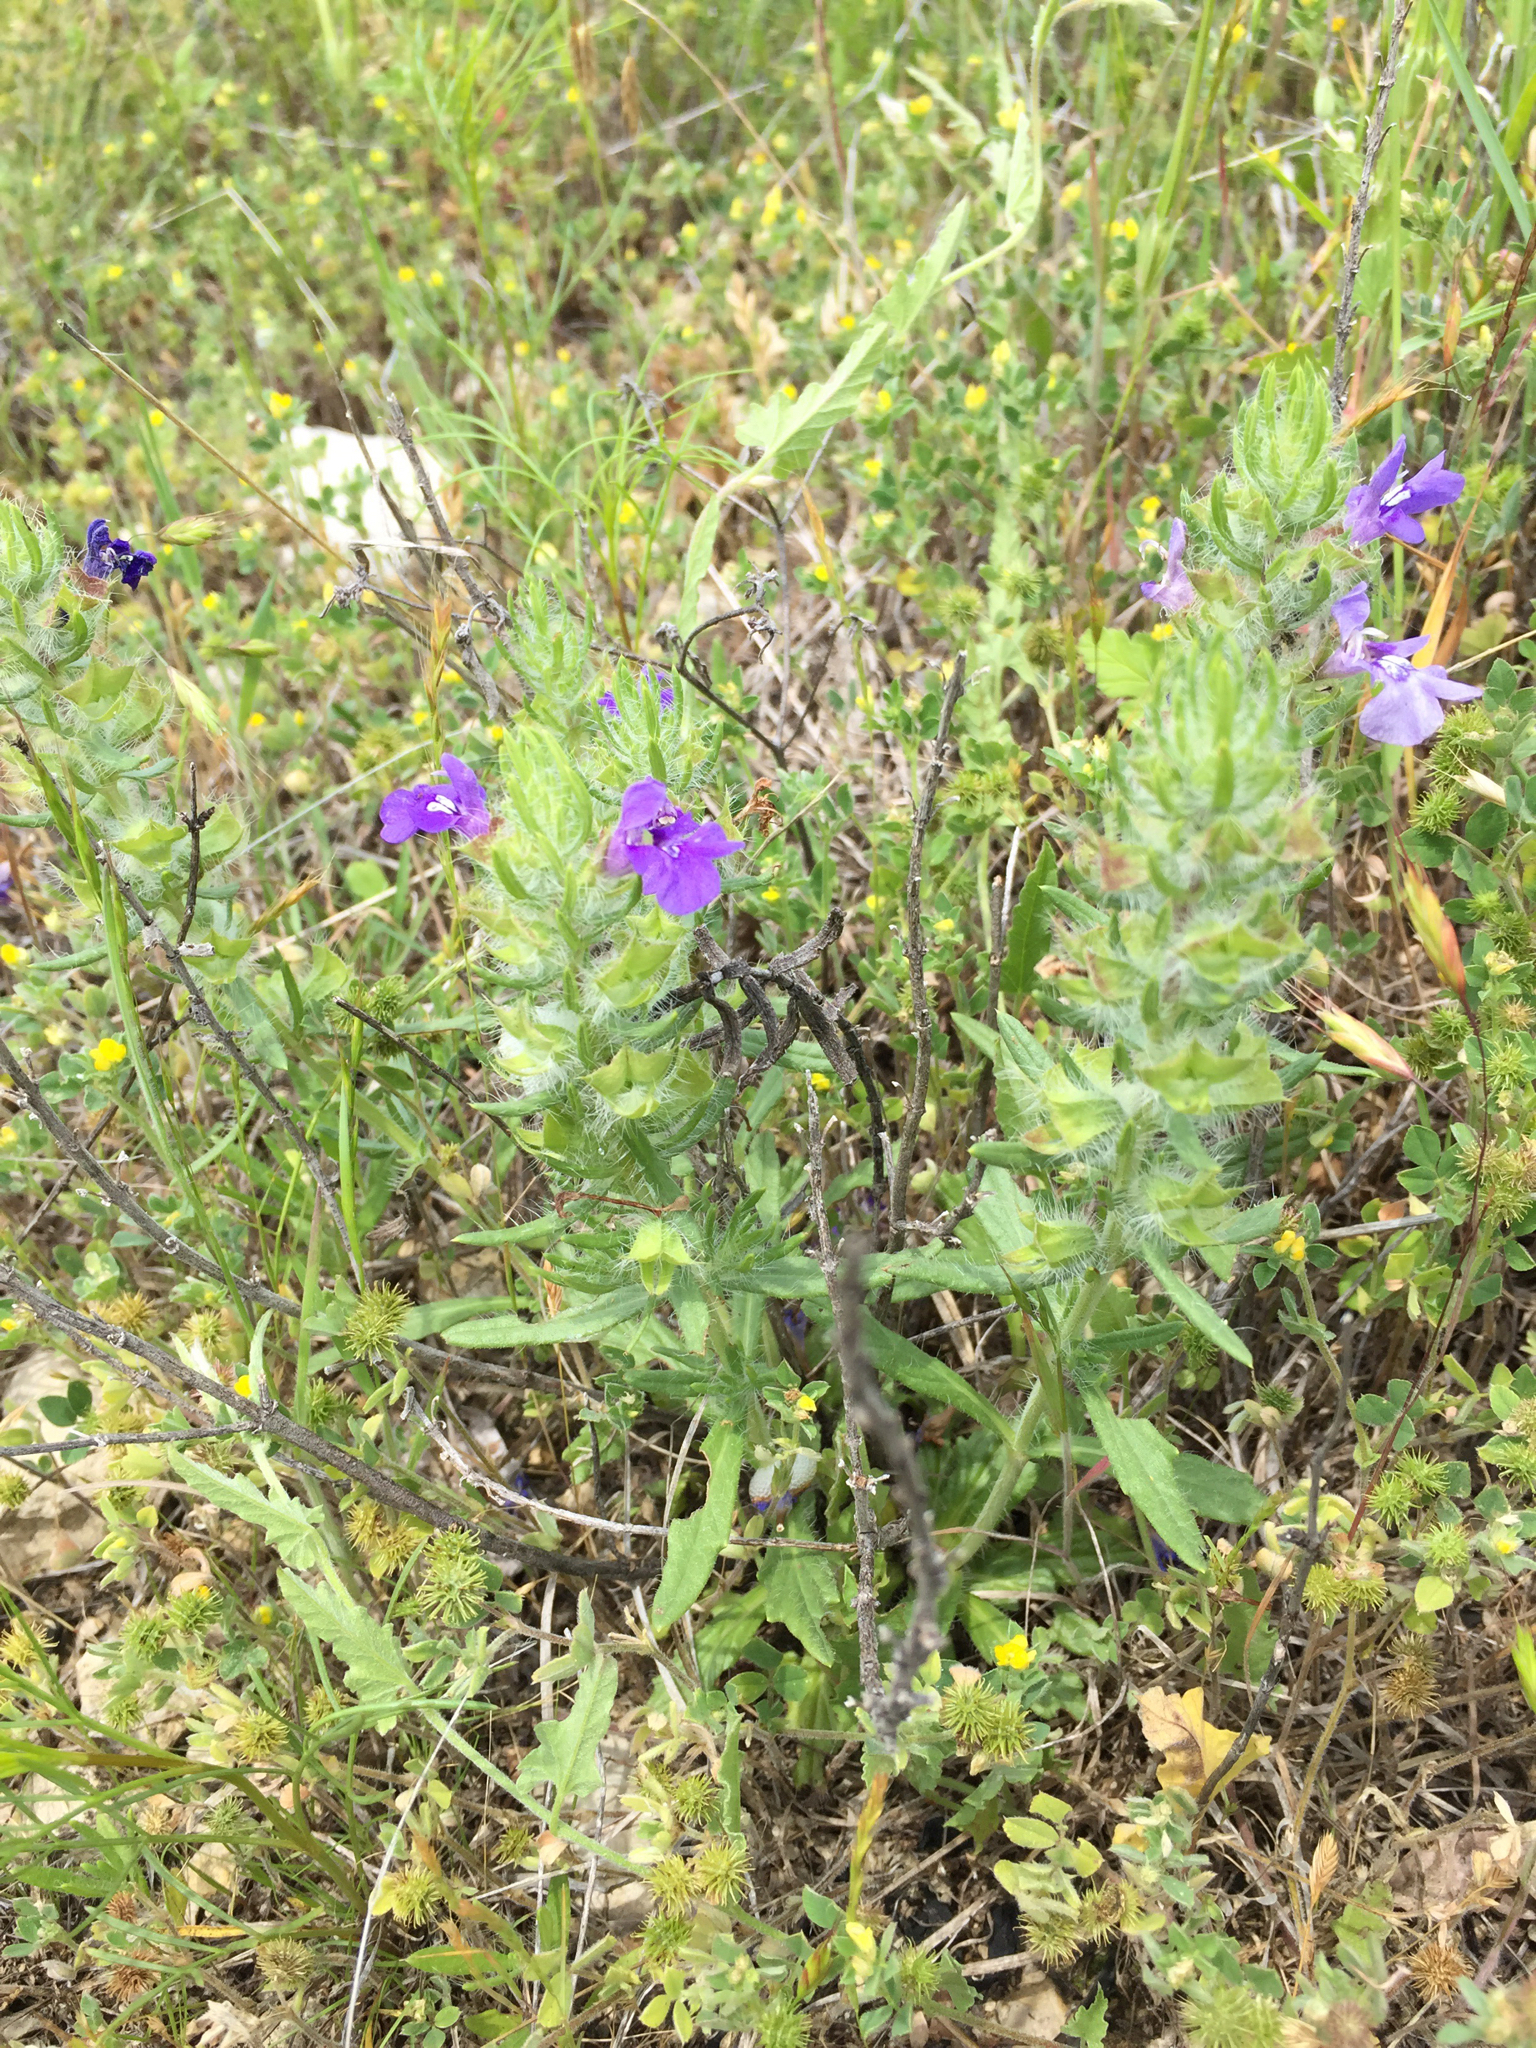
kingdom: Plantae
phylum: Tracheophyta
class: Magnoliopsida
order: Lamiales
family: Lamiaceae
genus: Salvia
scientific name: Salvia texana
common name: Texas sage
